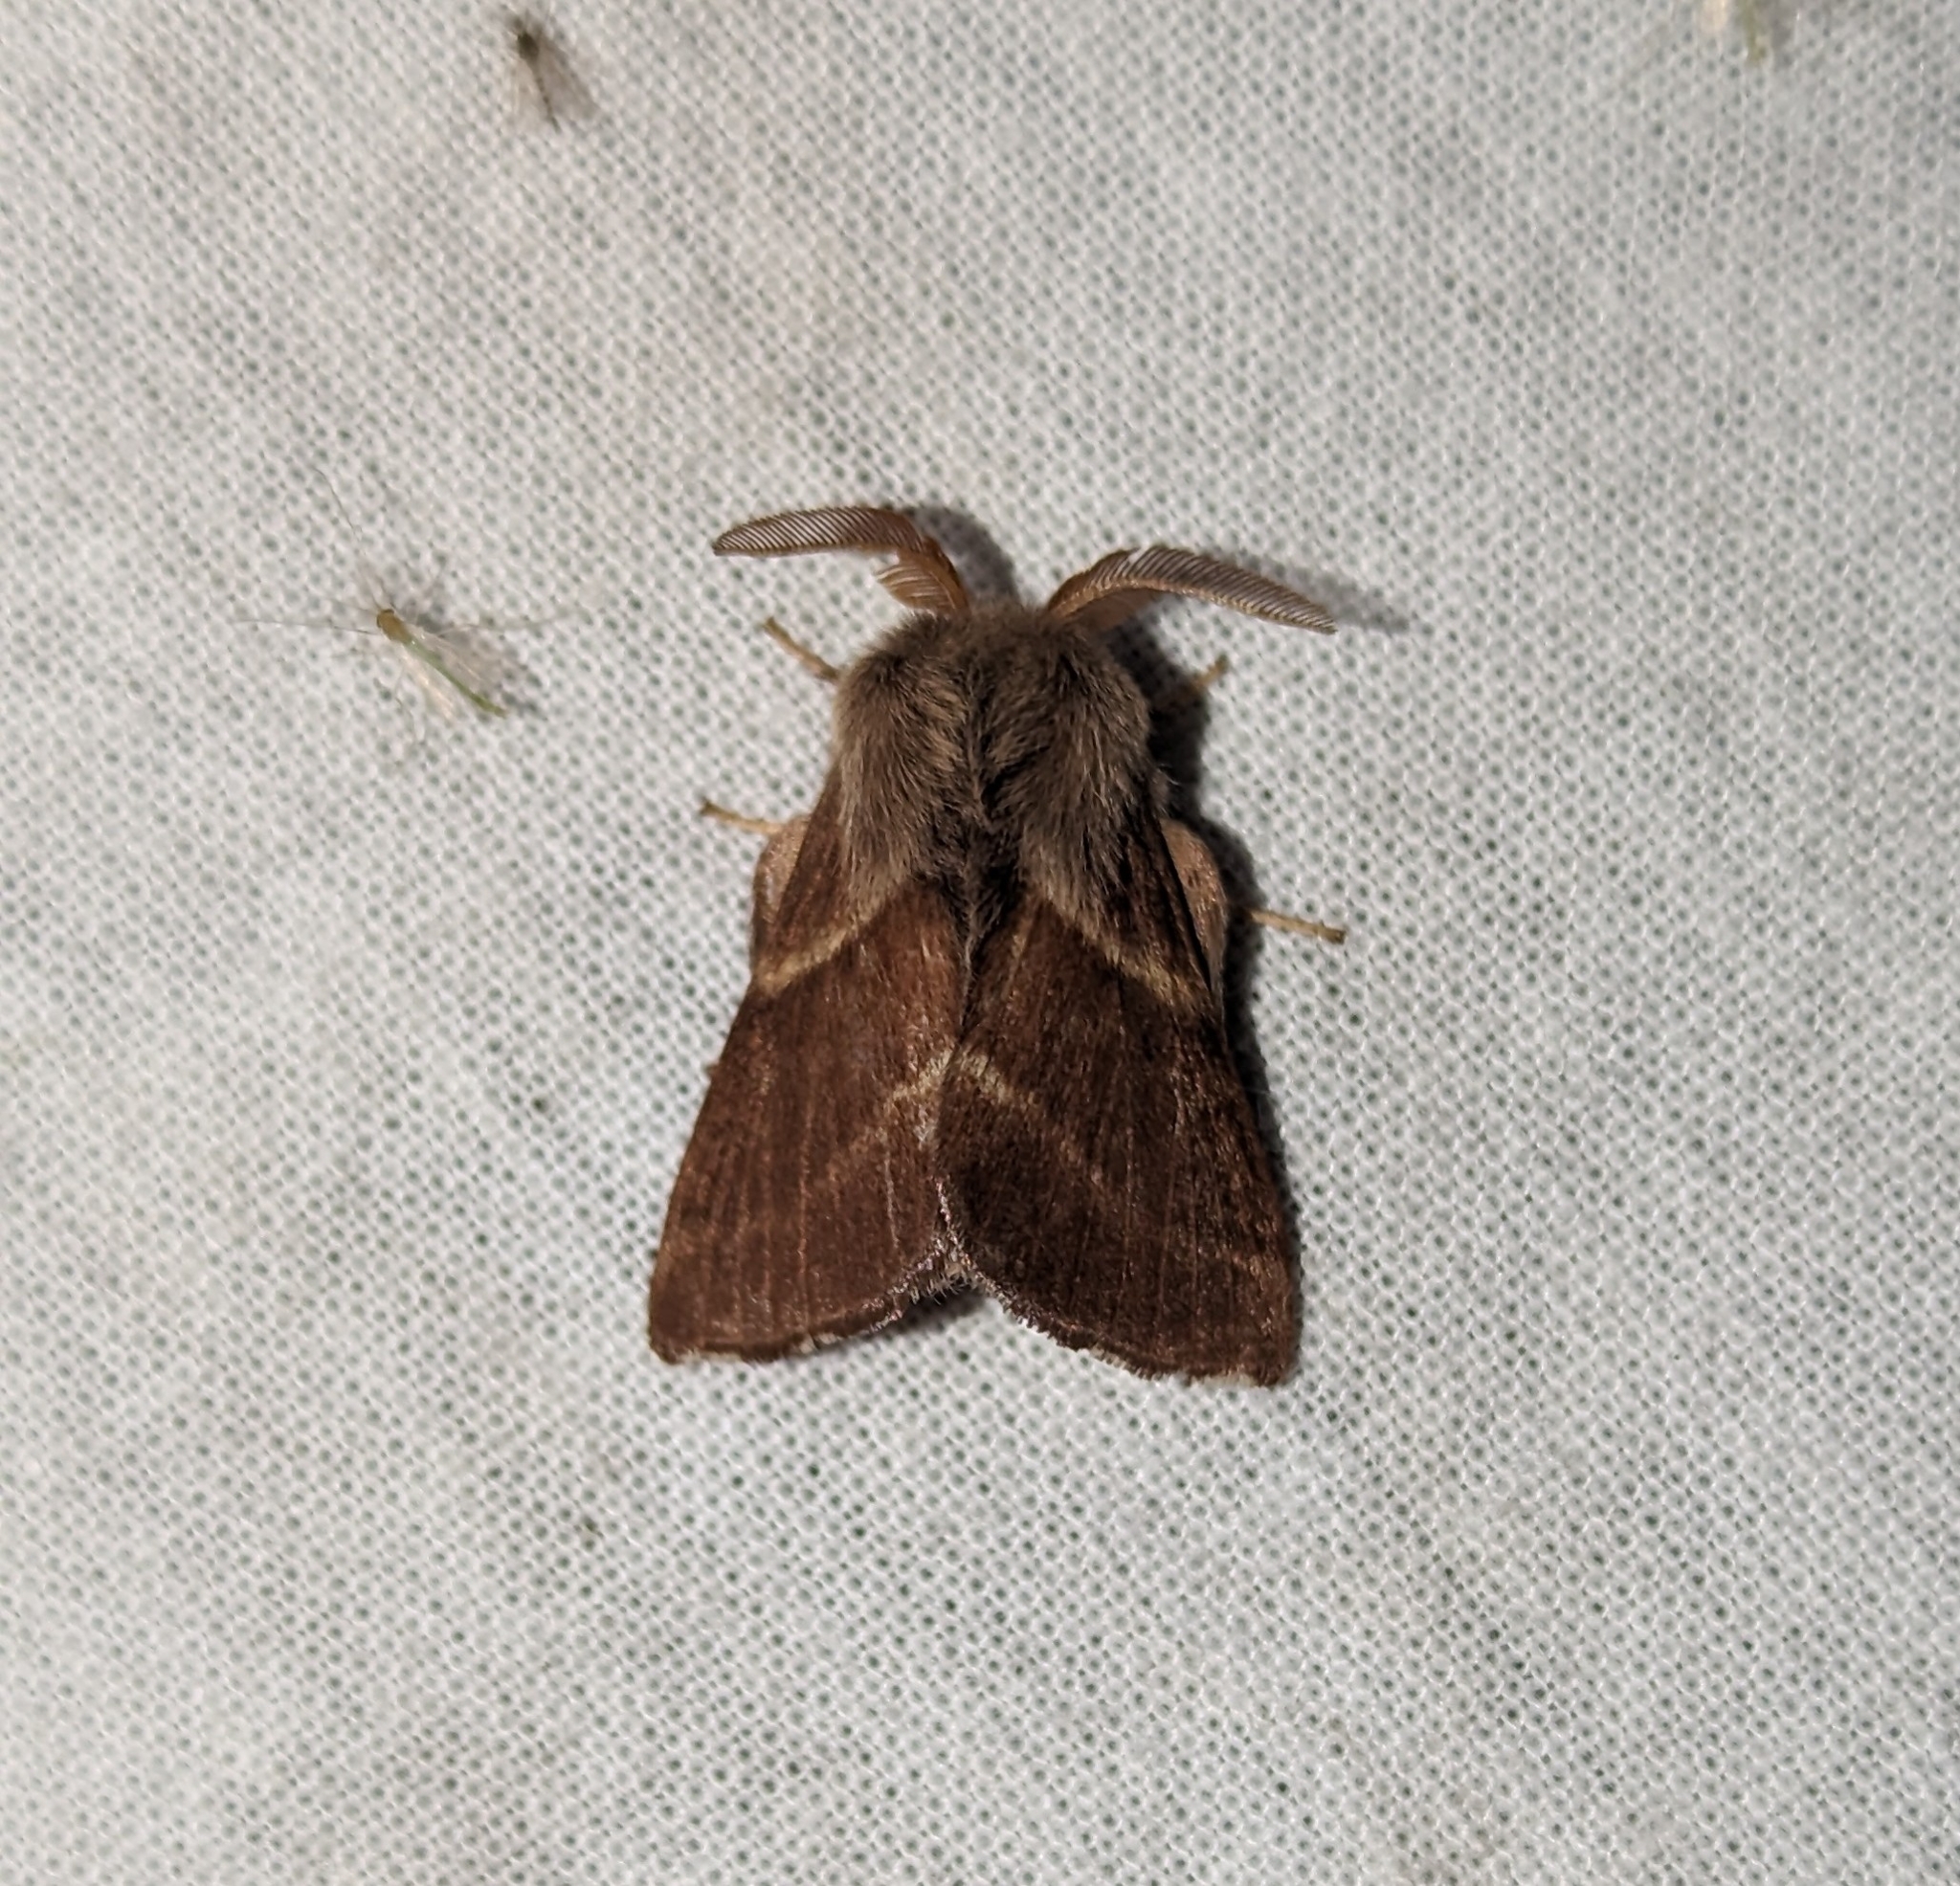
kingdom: Animalia
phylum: Arthropoda
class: Insecta
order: Lepidoptera
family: Lasiocampidae
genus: Malacosoma
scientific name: Malacosoma californica
